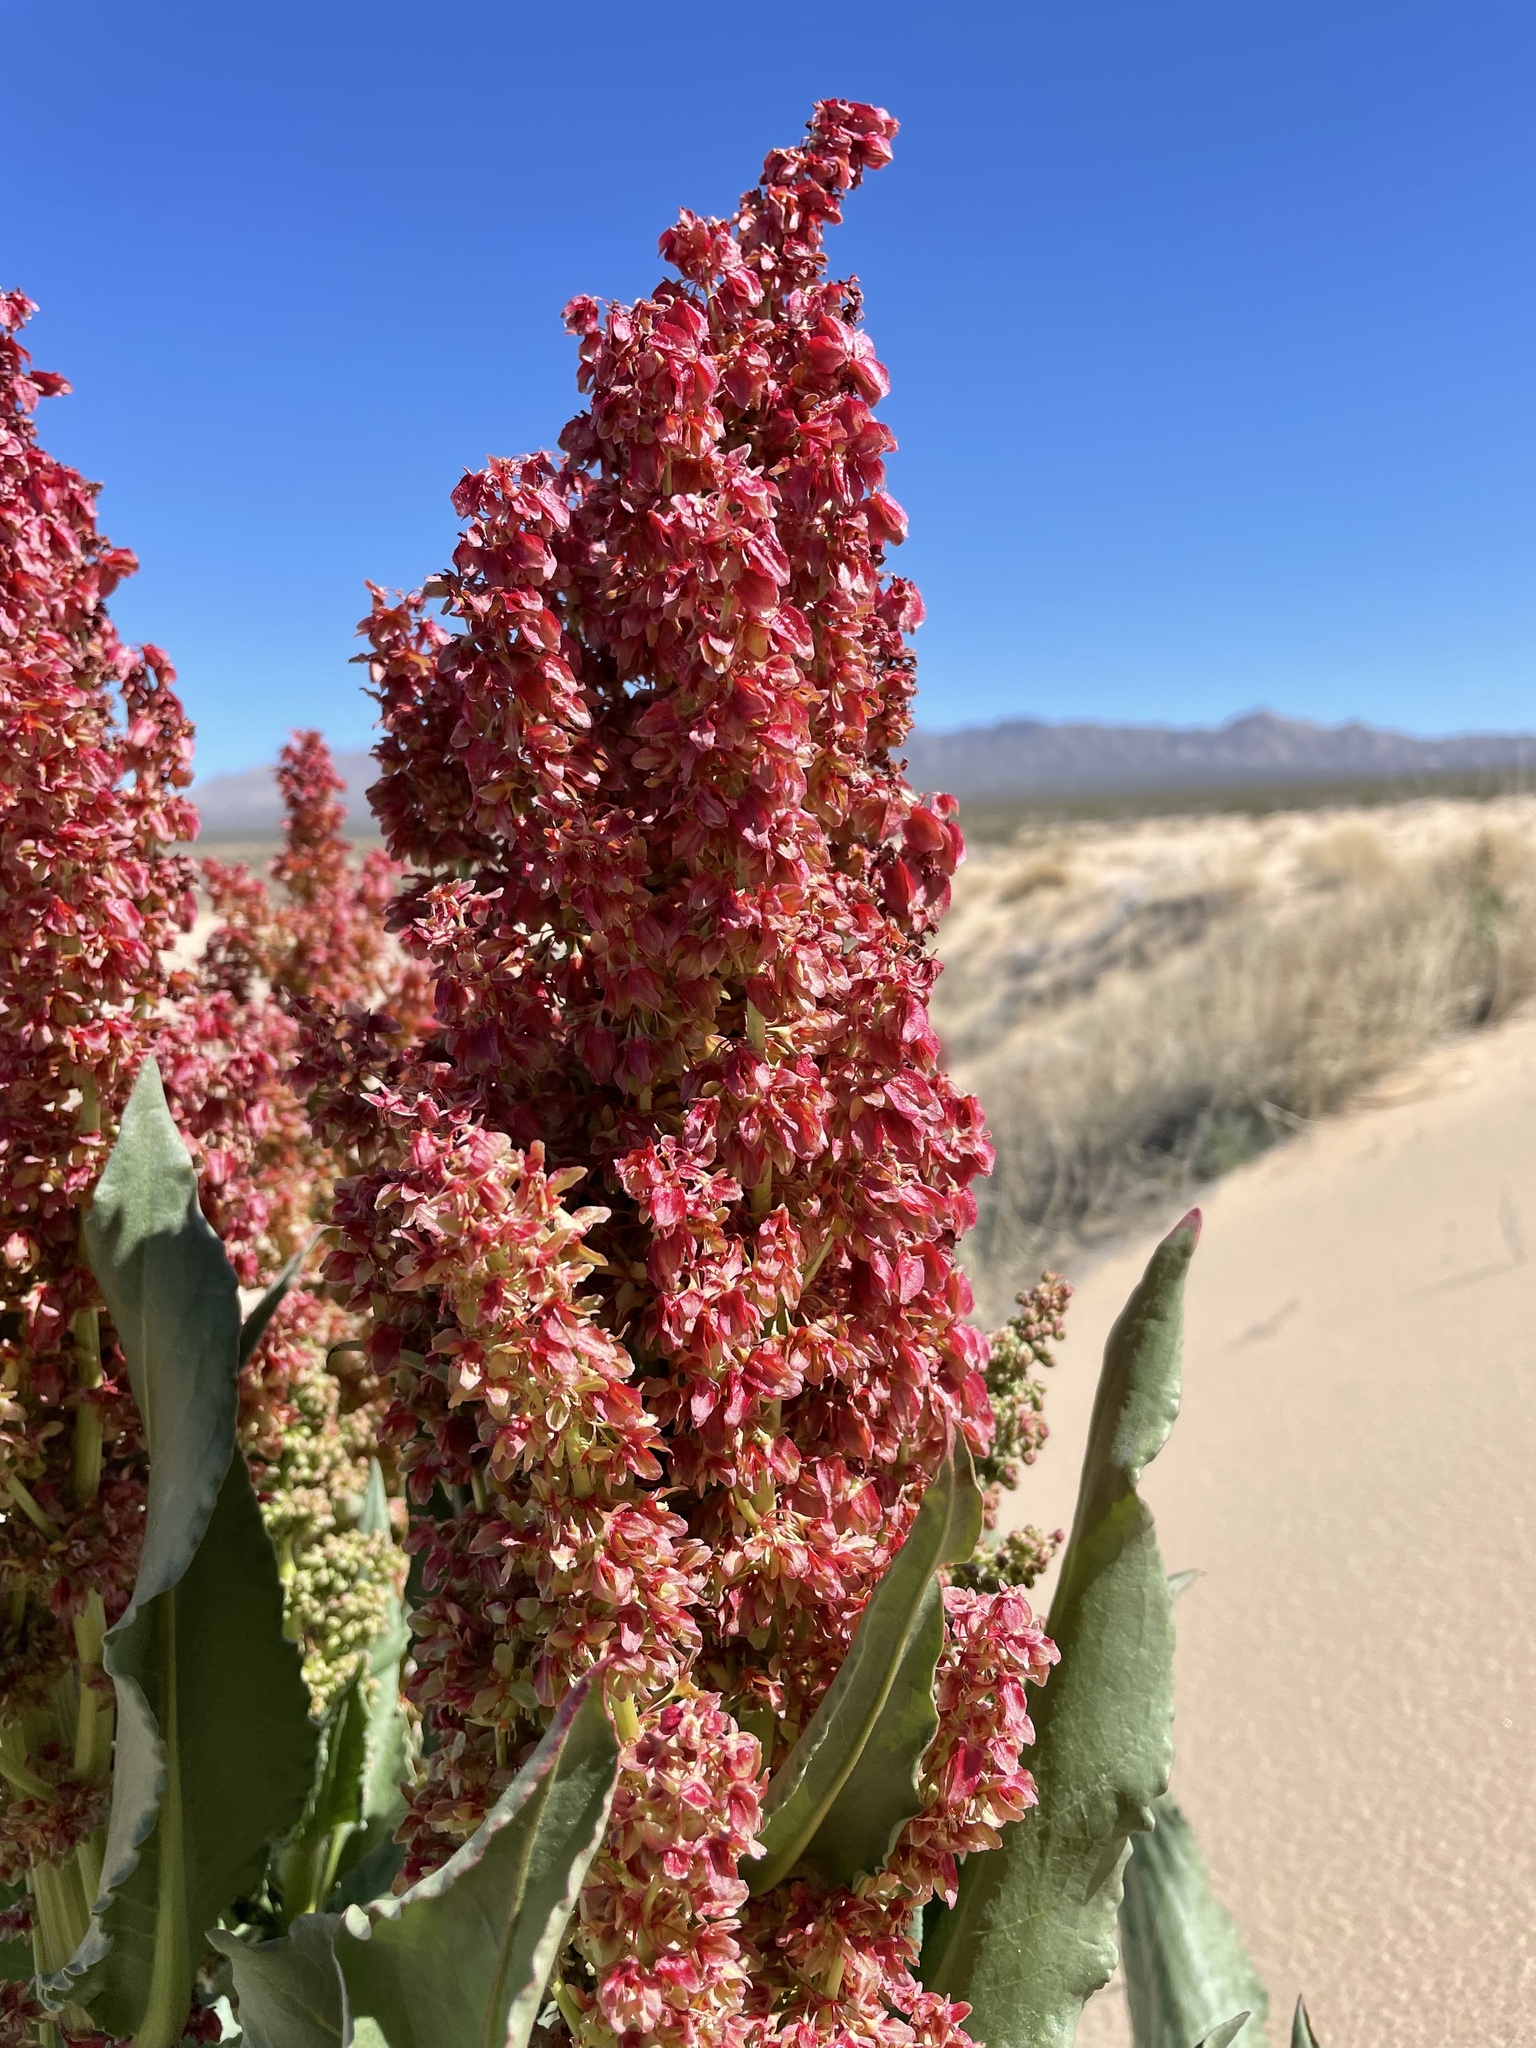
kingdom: Plantae
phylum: Tracheophyta
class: Magnoliopsida
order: Caryophyllales
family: Polygonaceae
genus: Rumex
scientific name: Rumex hymenosepalus
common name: Ganagra
